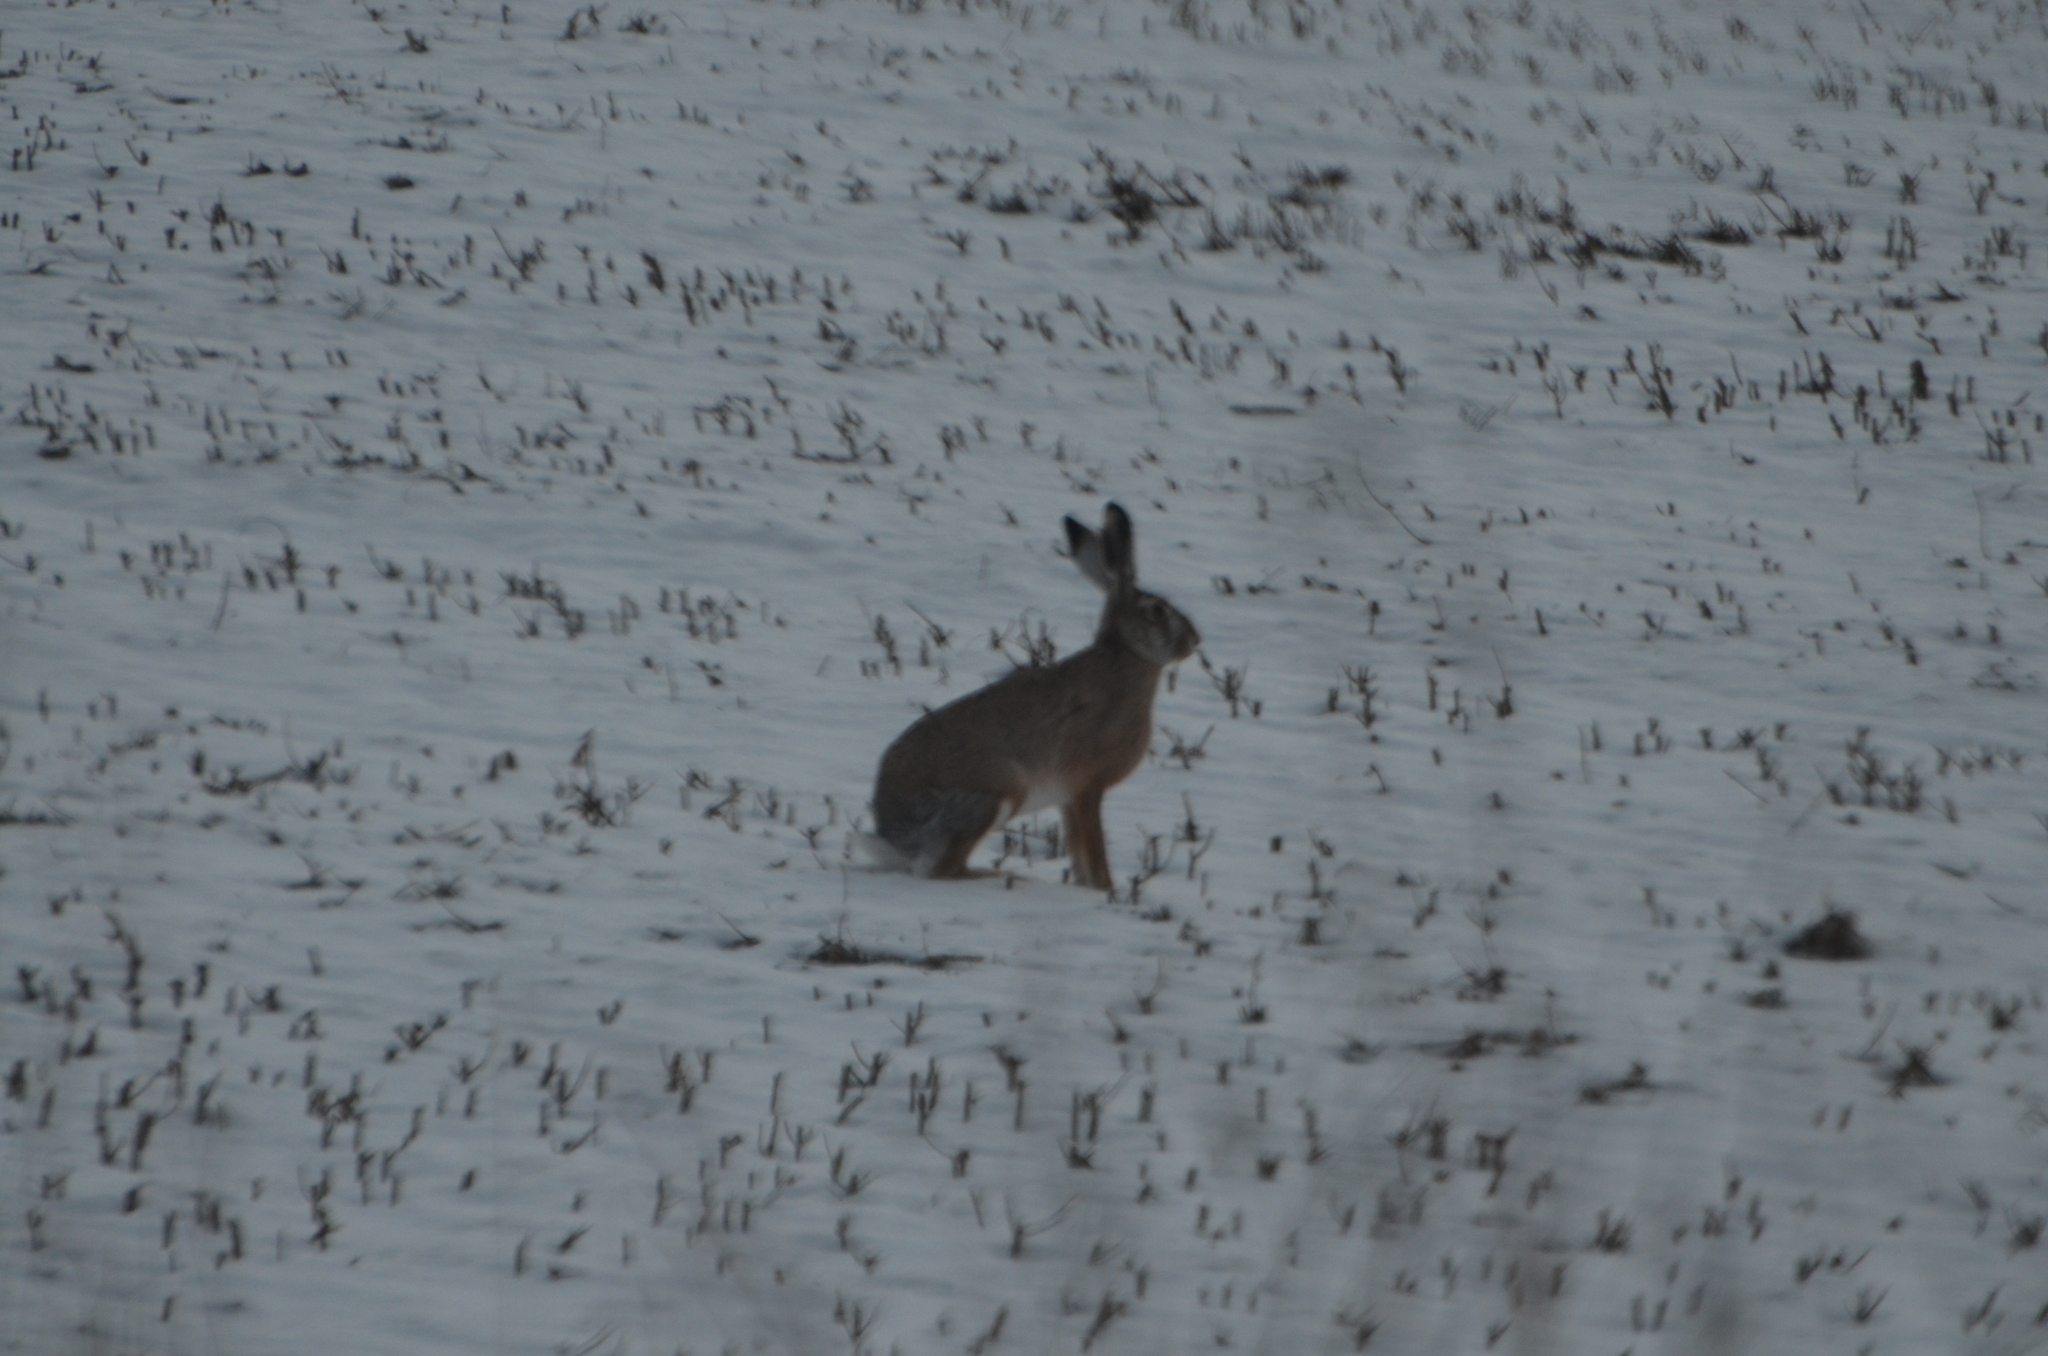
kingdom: Animalia
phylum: Chordata
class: Mammalia
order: Lagomorpha
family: Leporidae
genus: Lepus
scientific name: Lepus europaeus
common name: European hare
